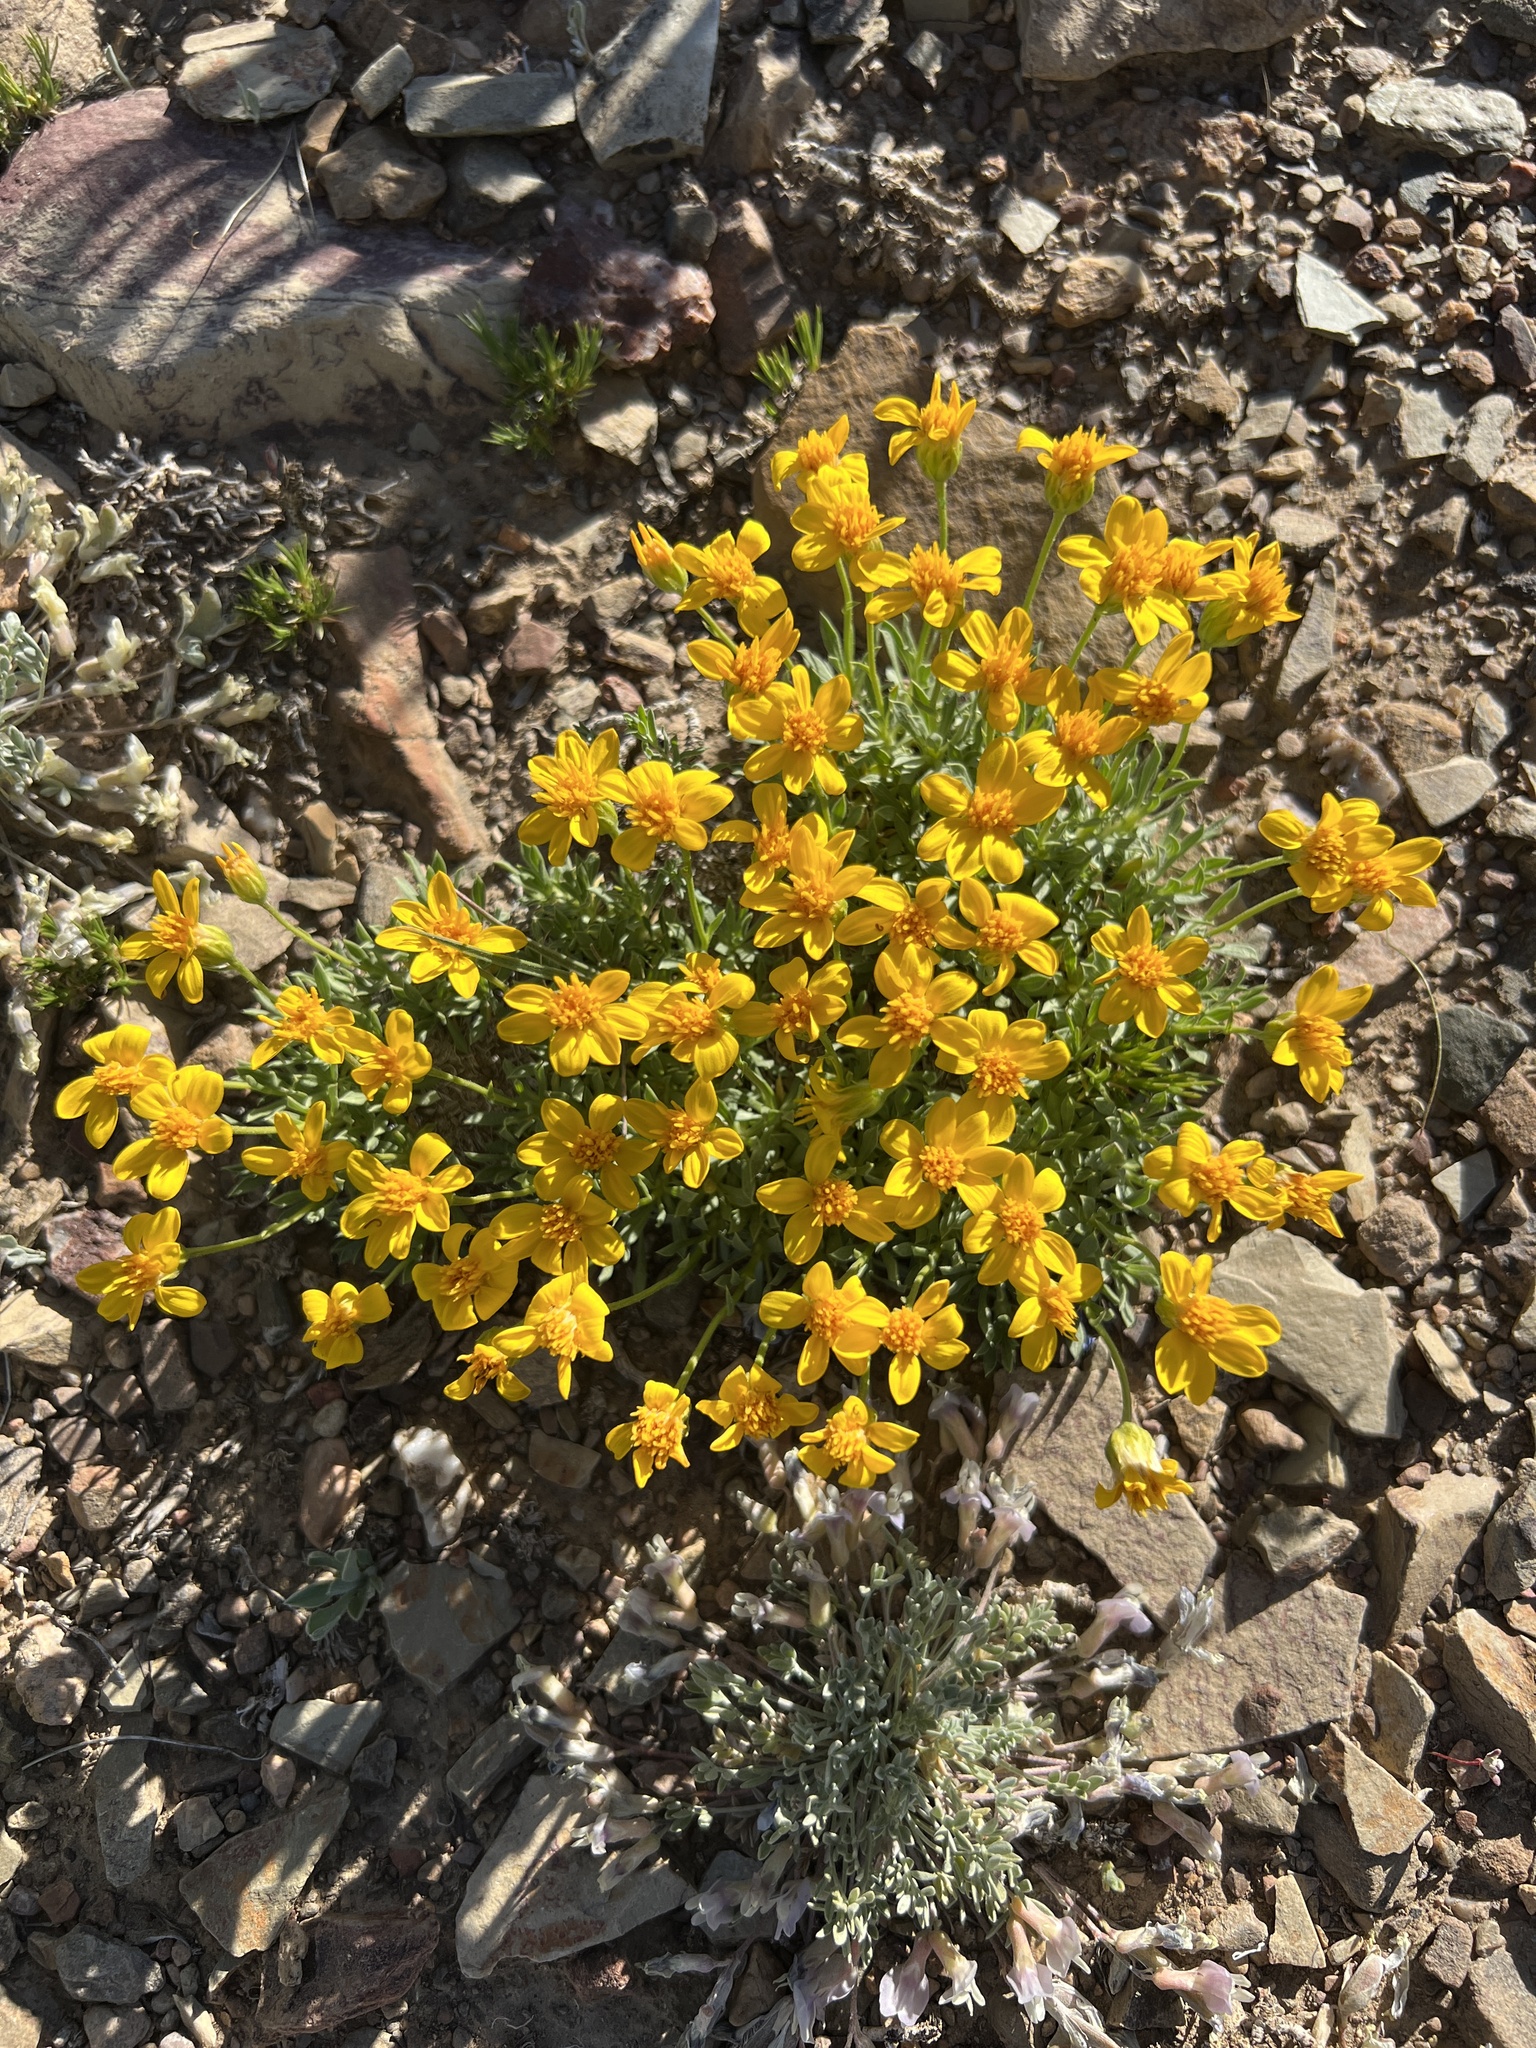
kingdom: Plantae
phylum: Tracheophyta
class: Magnoliopsida
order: Asterales
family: Asteraceae
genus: Stenotus
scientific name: Stenotus acaulis
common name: Stemless goldenweed
